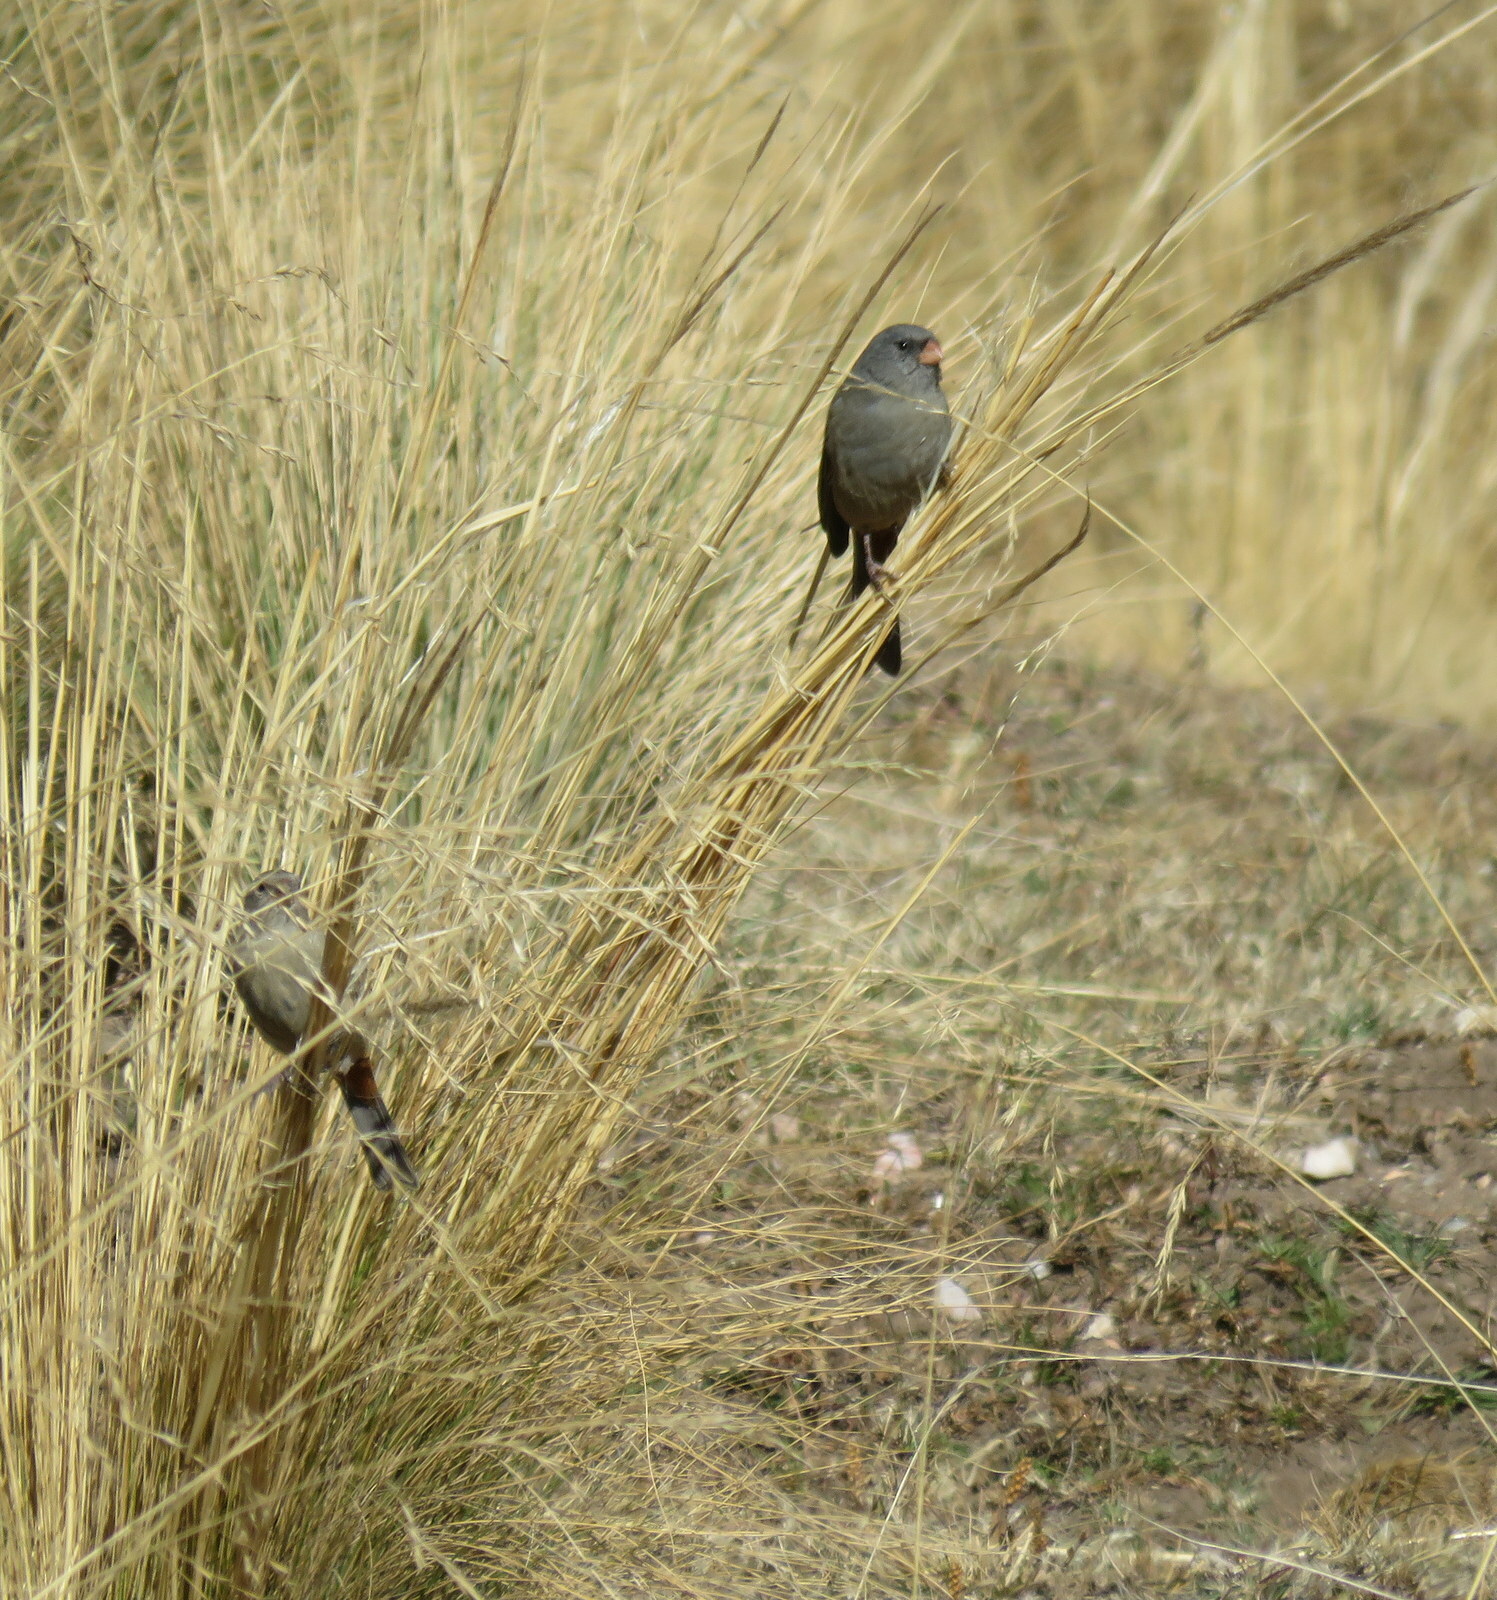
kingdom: Animalia
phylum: Chordata
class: Aves
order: Passeriformes
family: Thraupidae
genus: Catamenia
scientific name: Catamenia inornata
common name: Plain-colored seedeater
